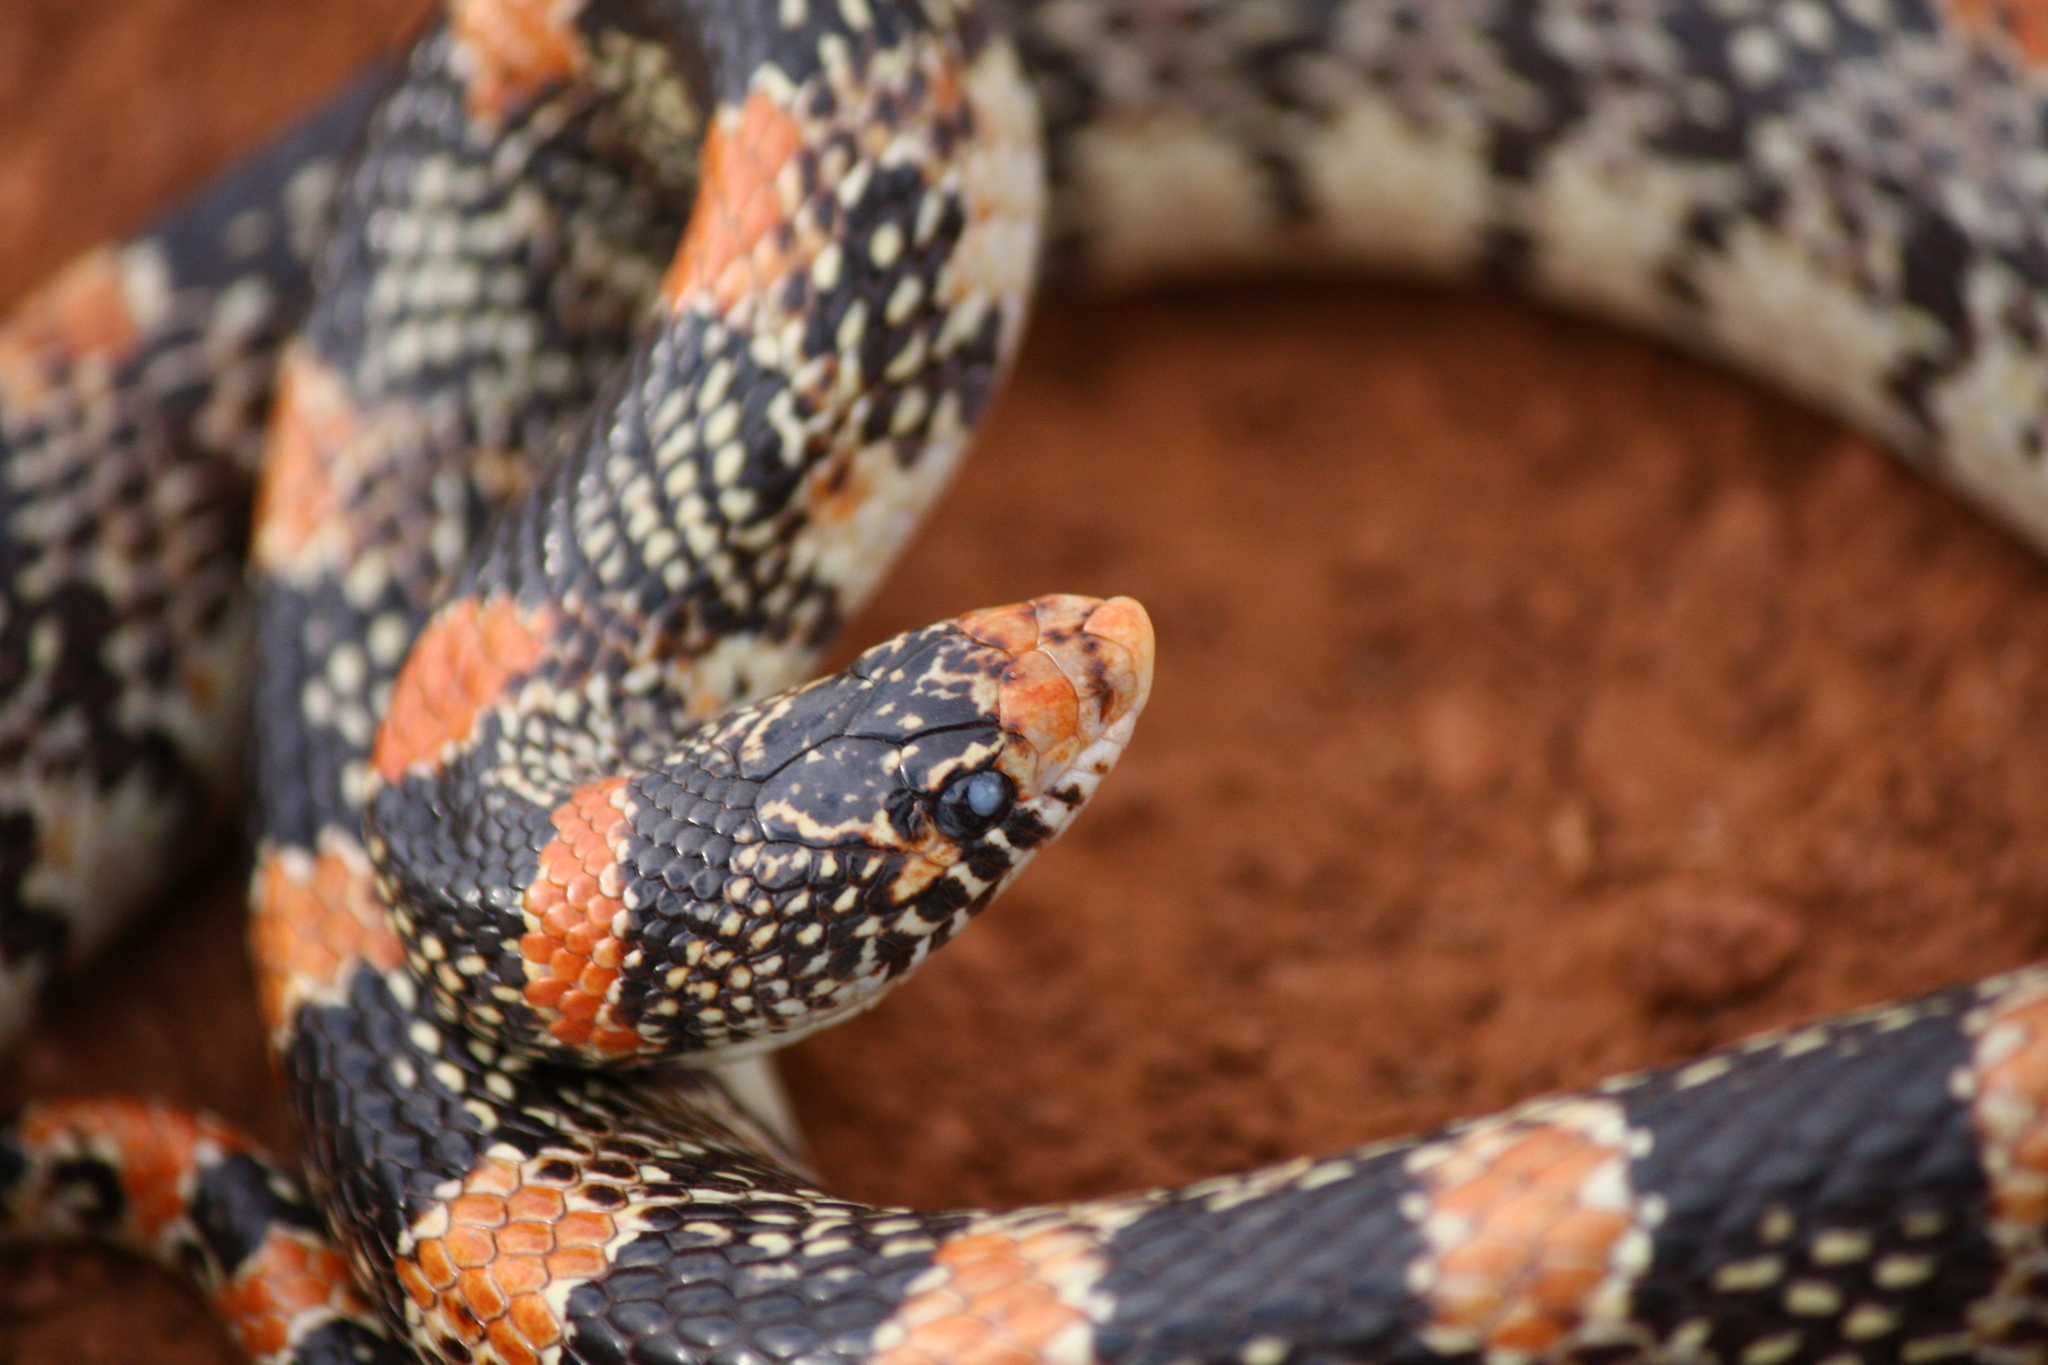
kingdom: Animalia
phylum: Chordata
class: Squamata
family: Colubridae
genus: Rhinocheilus
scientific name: Rhinocheilus lecontei
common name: Longnose snake
